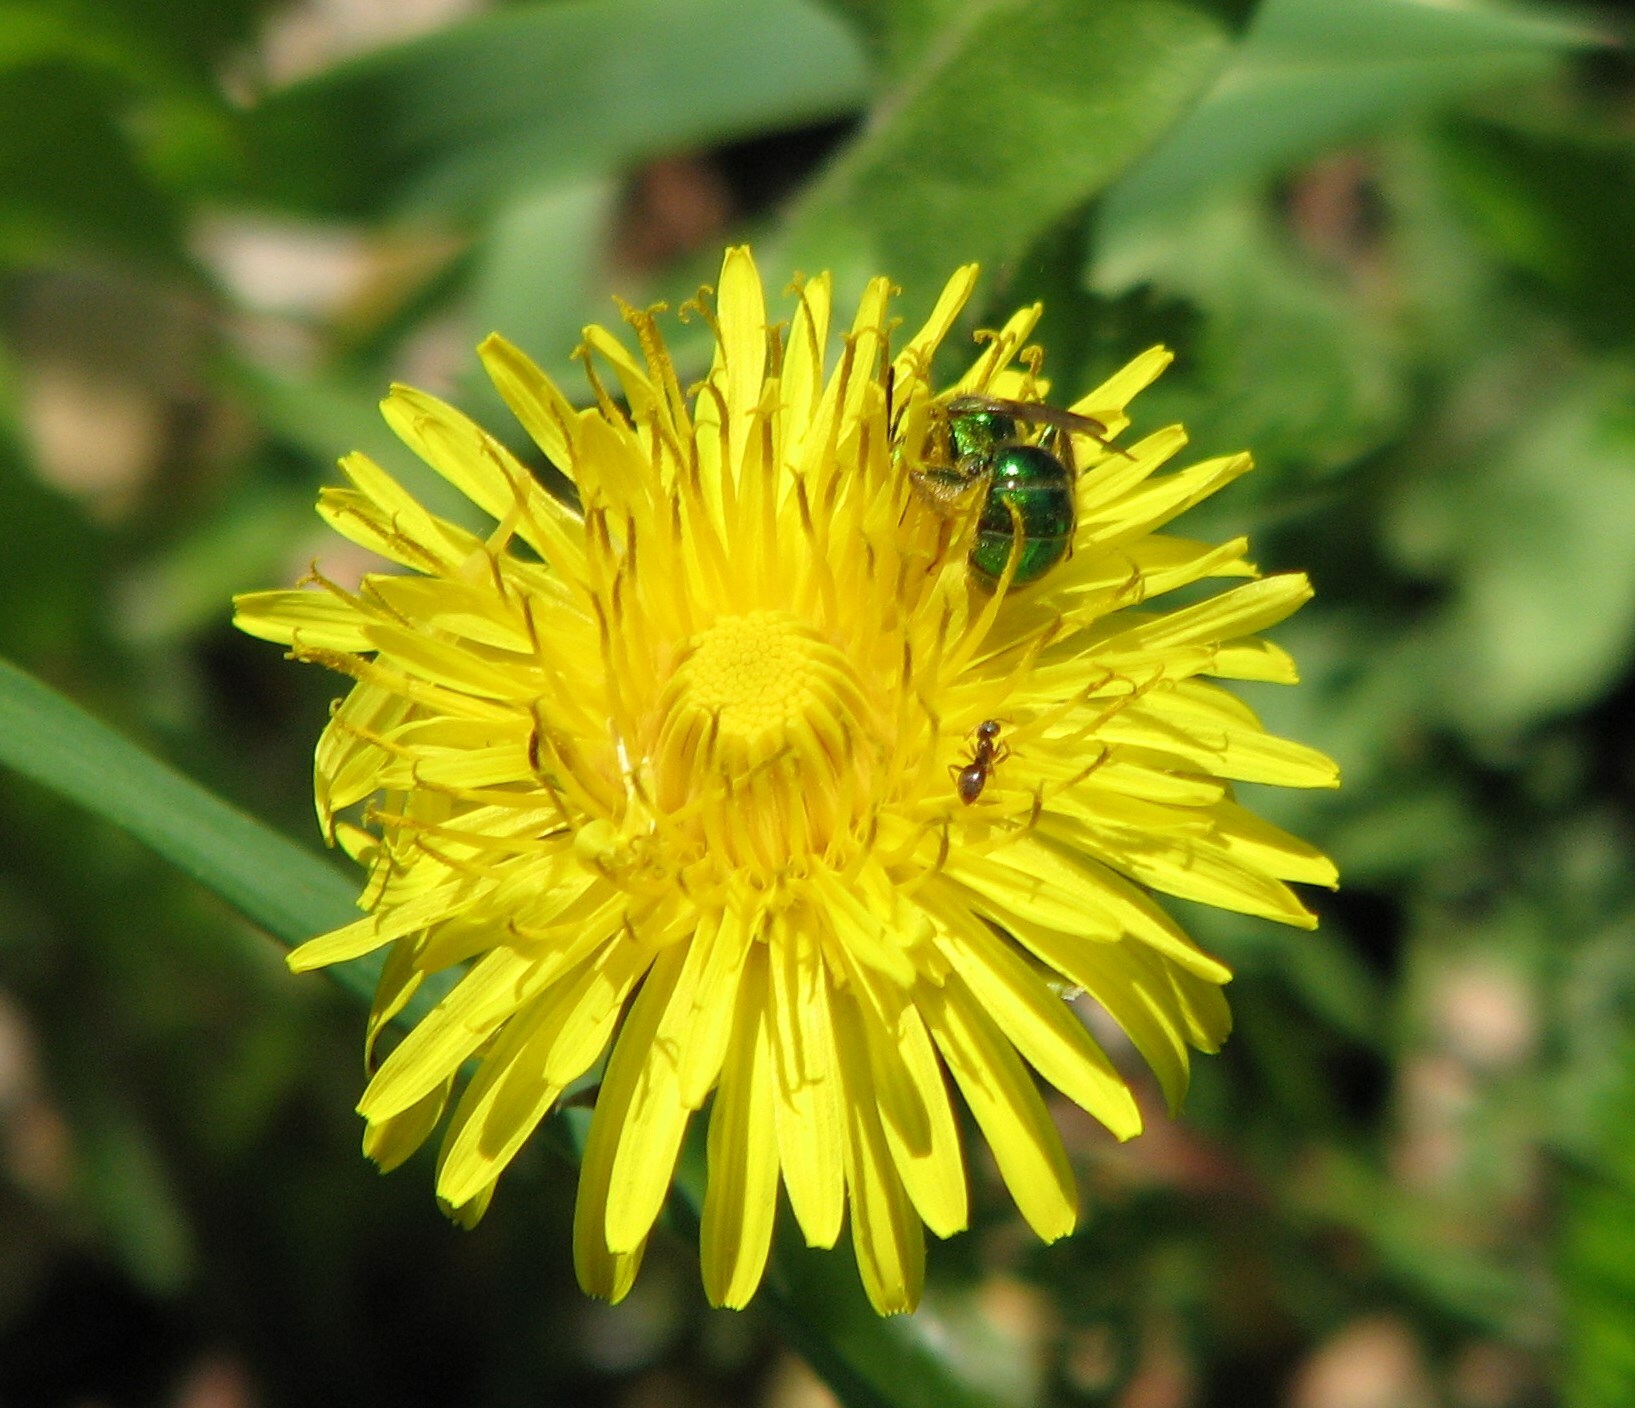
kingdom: Animalia
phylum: Arthropoda
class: Insecta
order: Hymenoptera
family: Halictidae
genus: Augochlora
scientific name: Augochlora pura
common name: Pure green sweat bee
